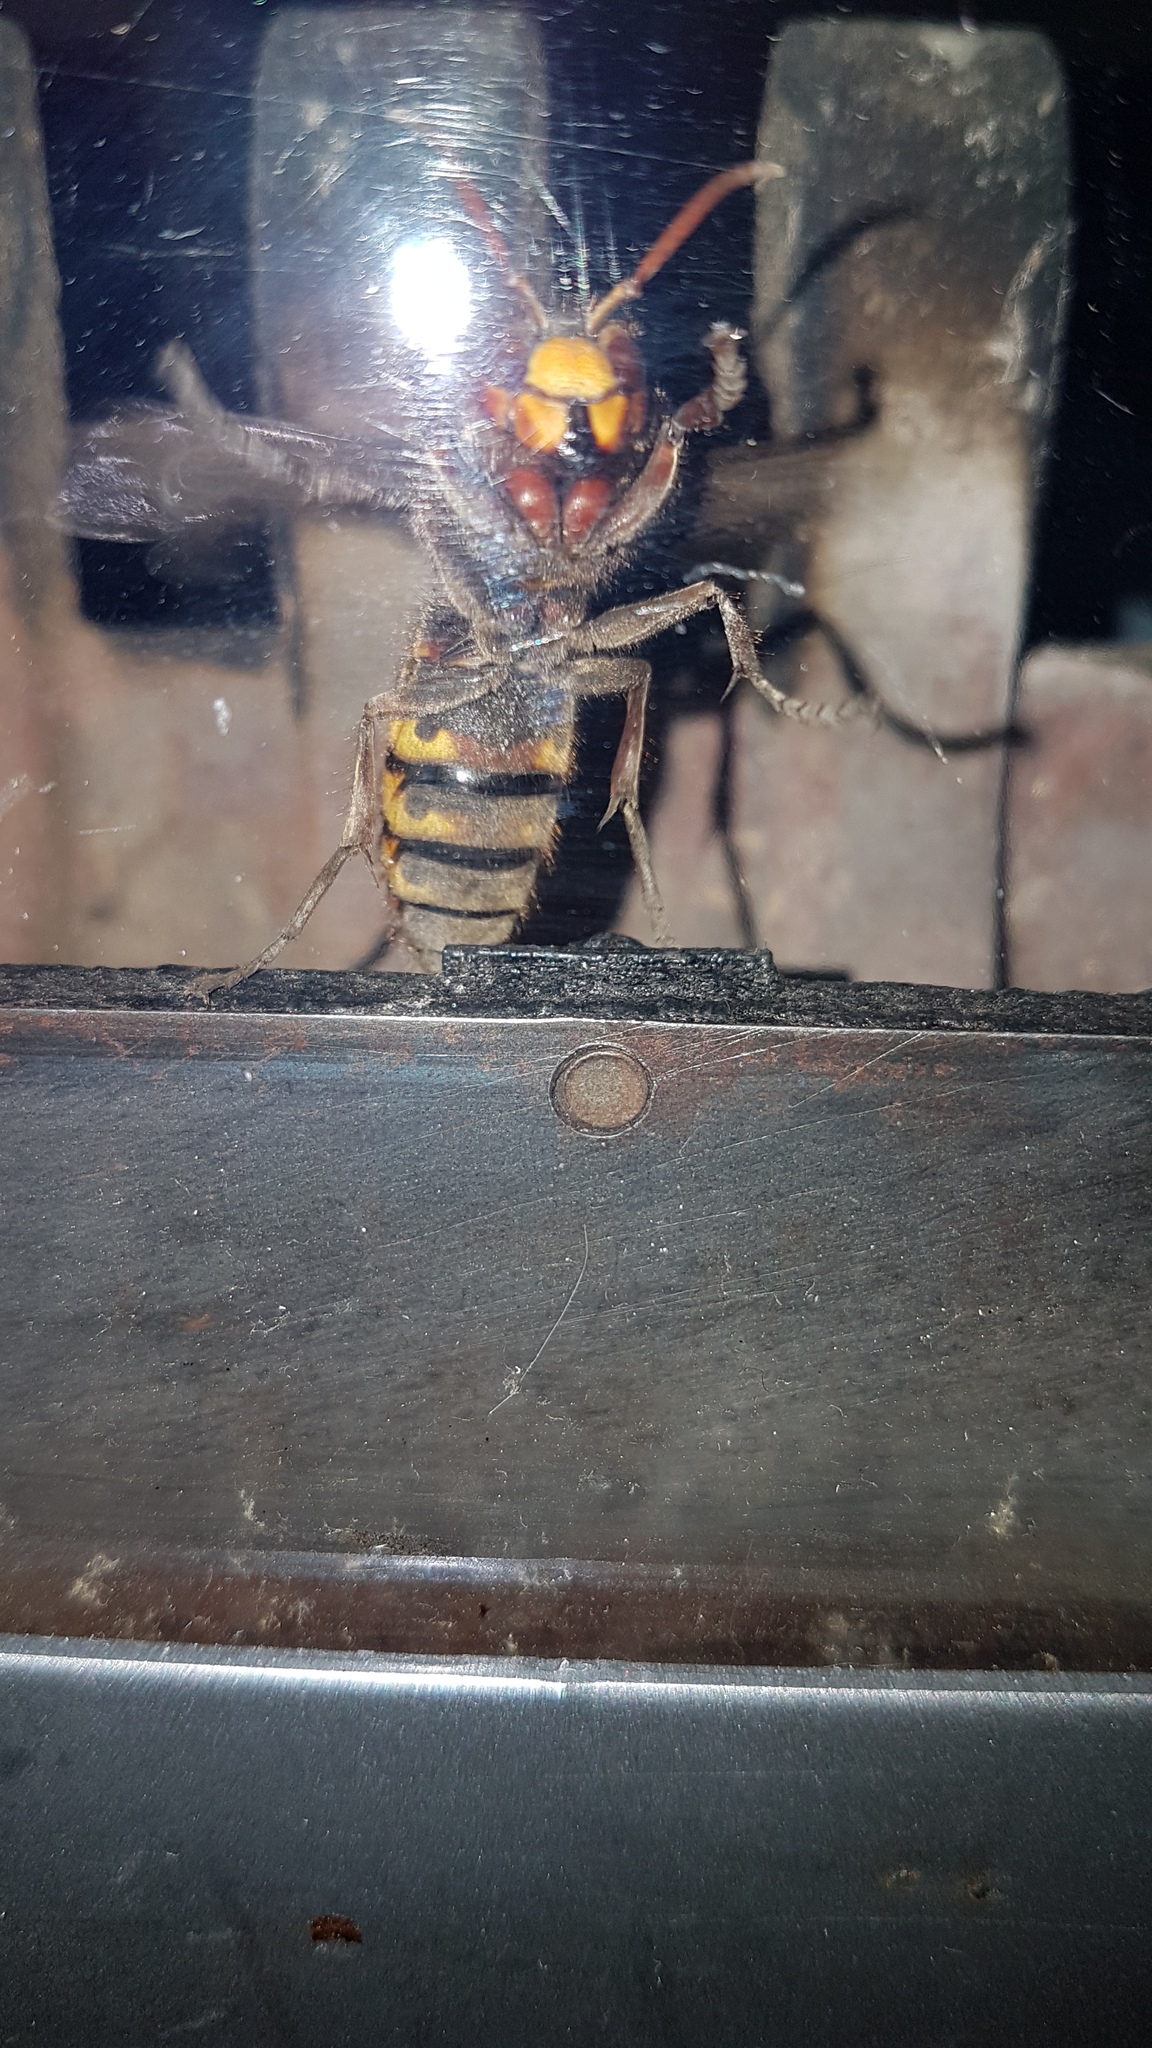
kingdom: Animalia
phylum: Arthropoda
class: Insecta
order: Hymenoptera
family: Vespidae
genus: Vespa
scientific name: Vespa crabro
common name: Hornet
